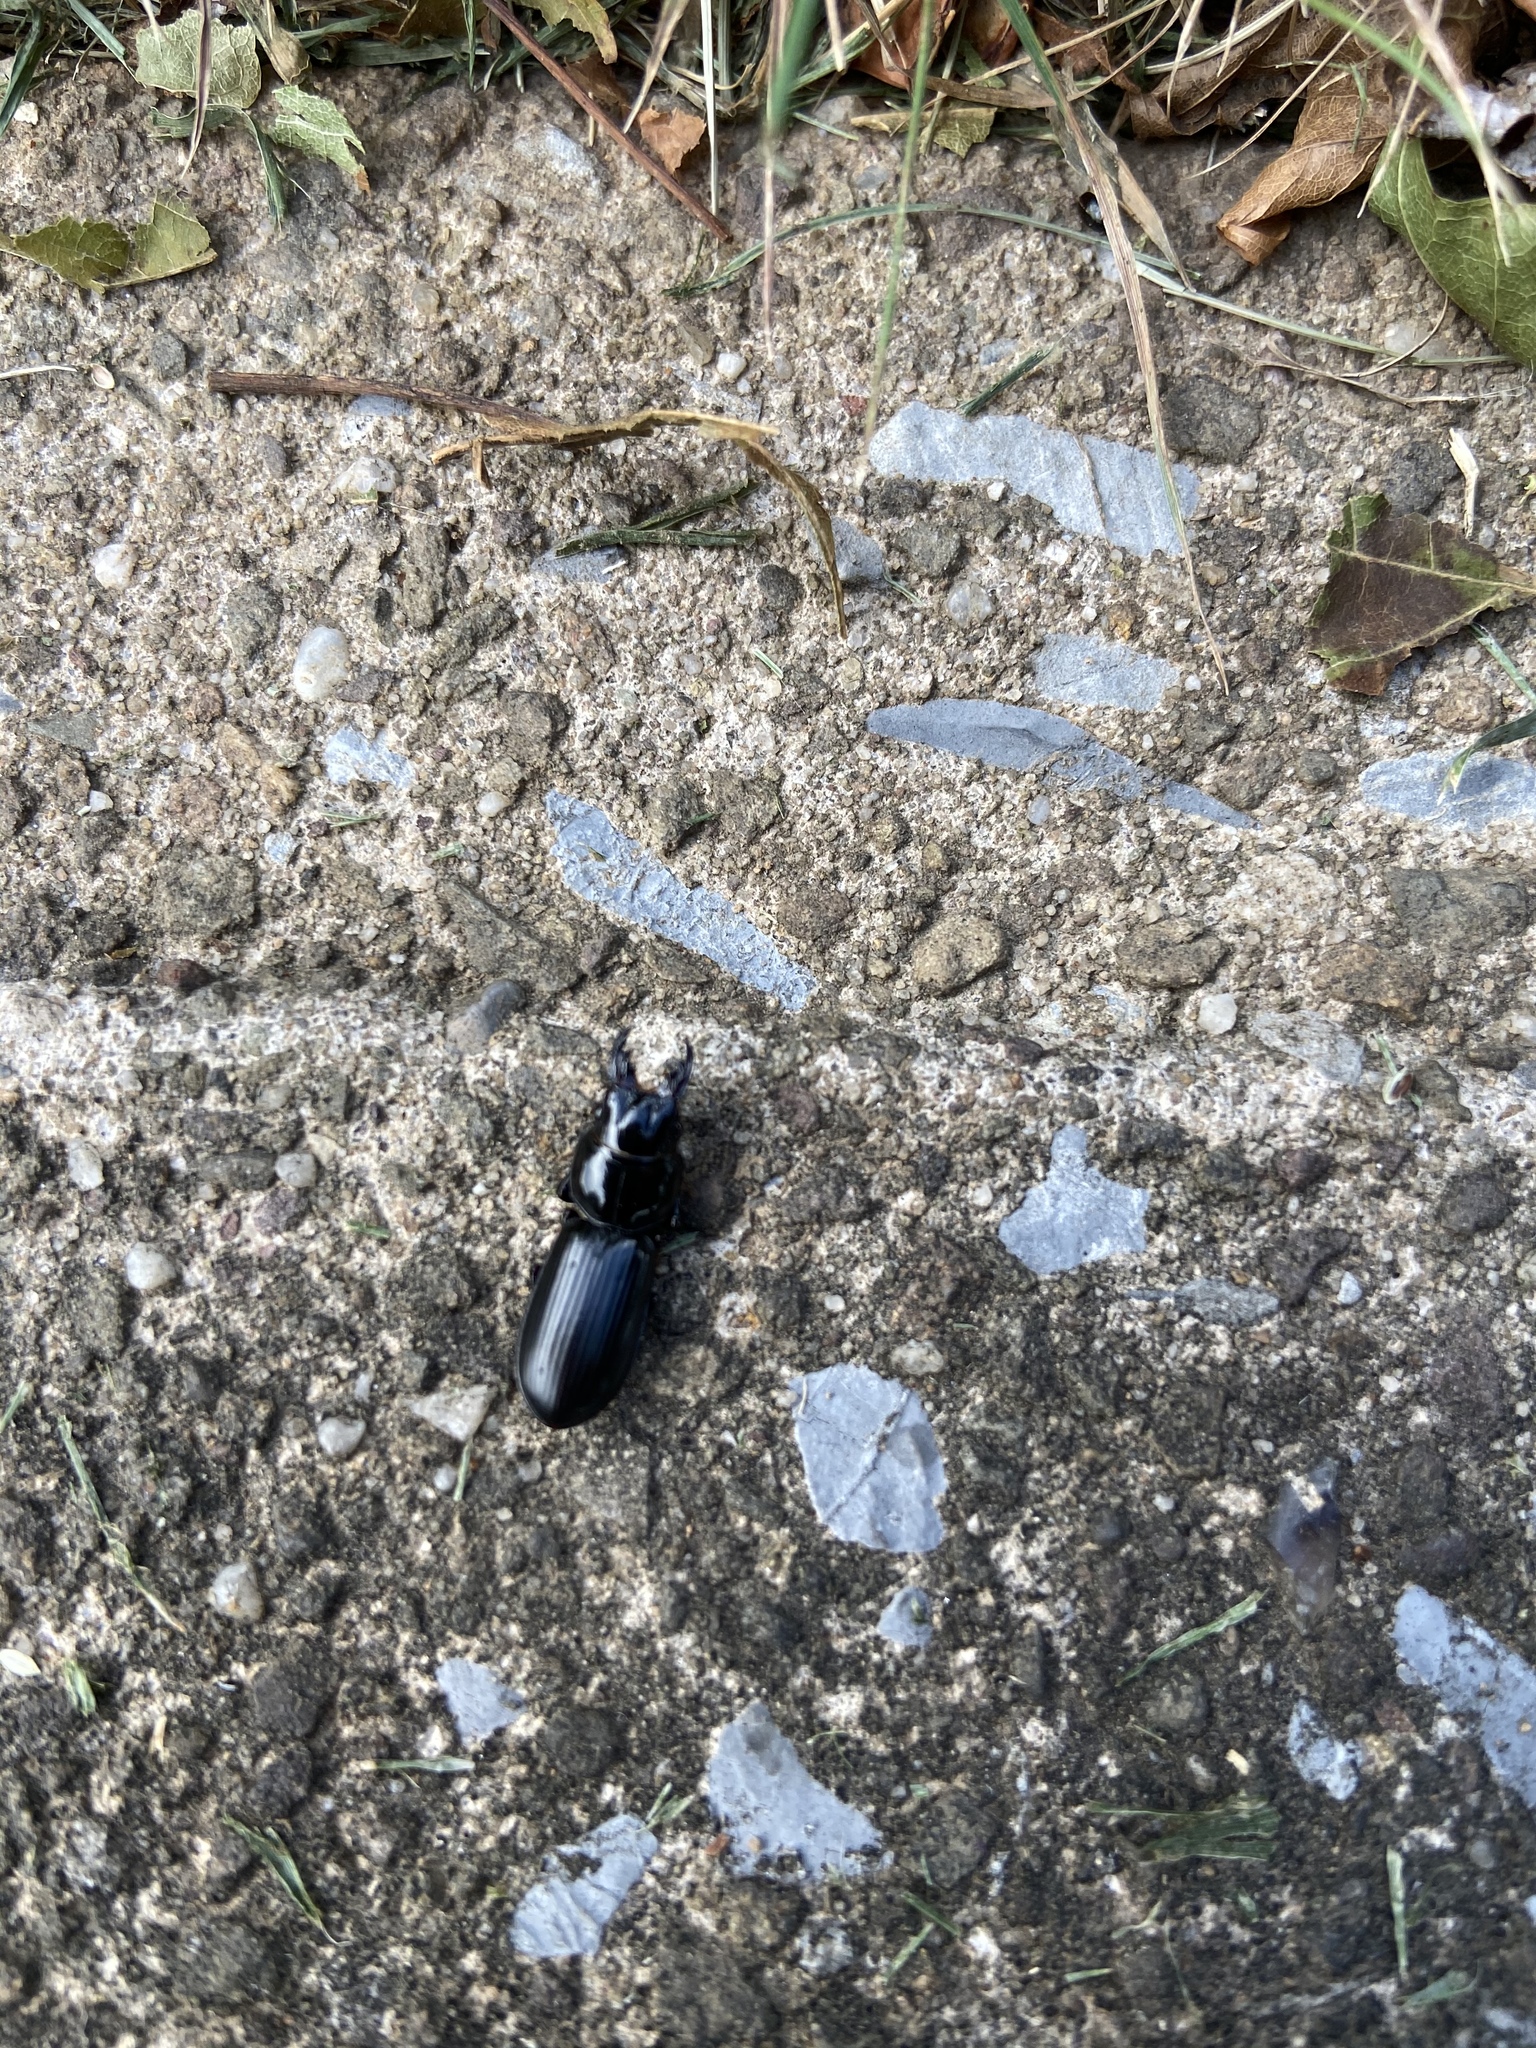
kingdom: Animalia
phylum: Arthropoda
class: Insecta
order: Coleoptera
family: Carabidae
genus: Scarites
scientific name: Scarites subterraneus
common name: Big-headed ground beetle
